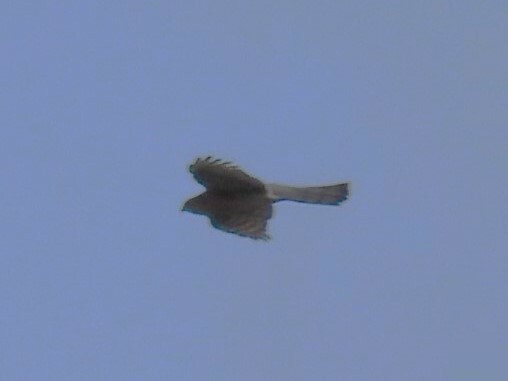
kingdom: Animalia
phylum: Chordata
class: Aves
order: Accipitriformes
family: Accipitridae
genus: Accipiter
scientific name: Accipiter nisus
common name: Eurasian sparrowhawk
